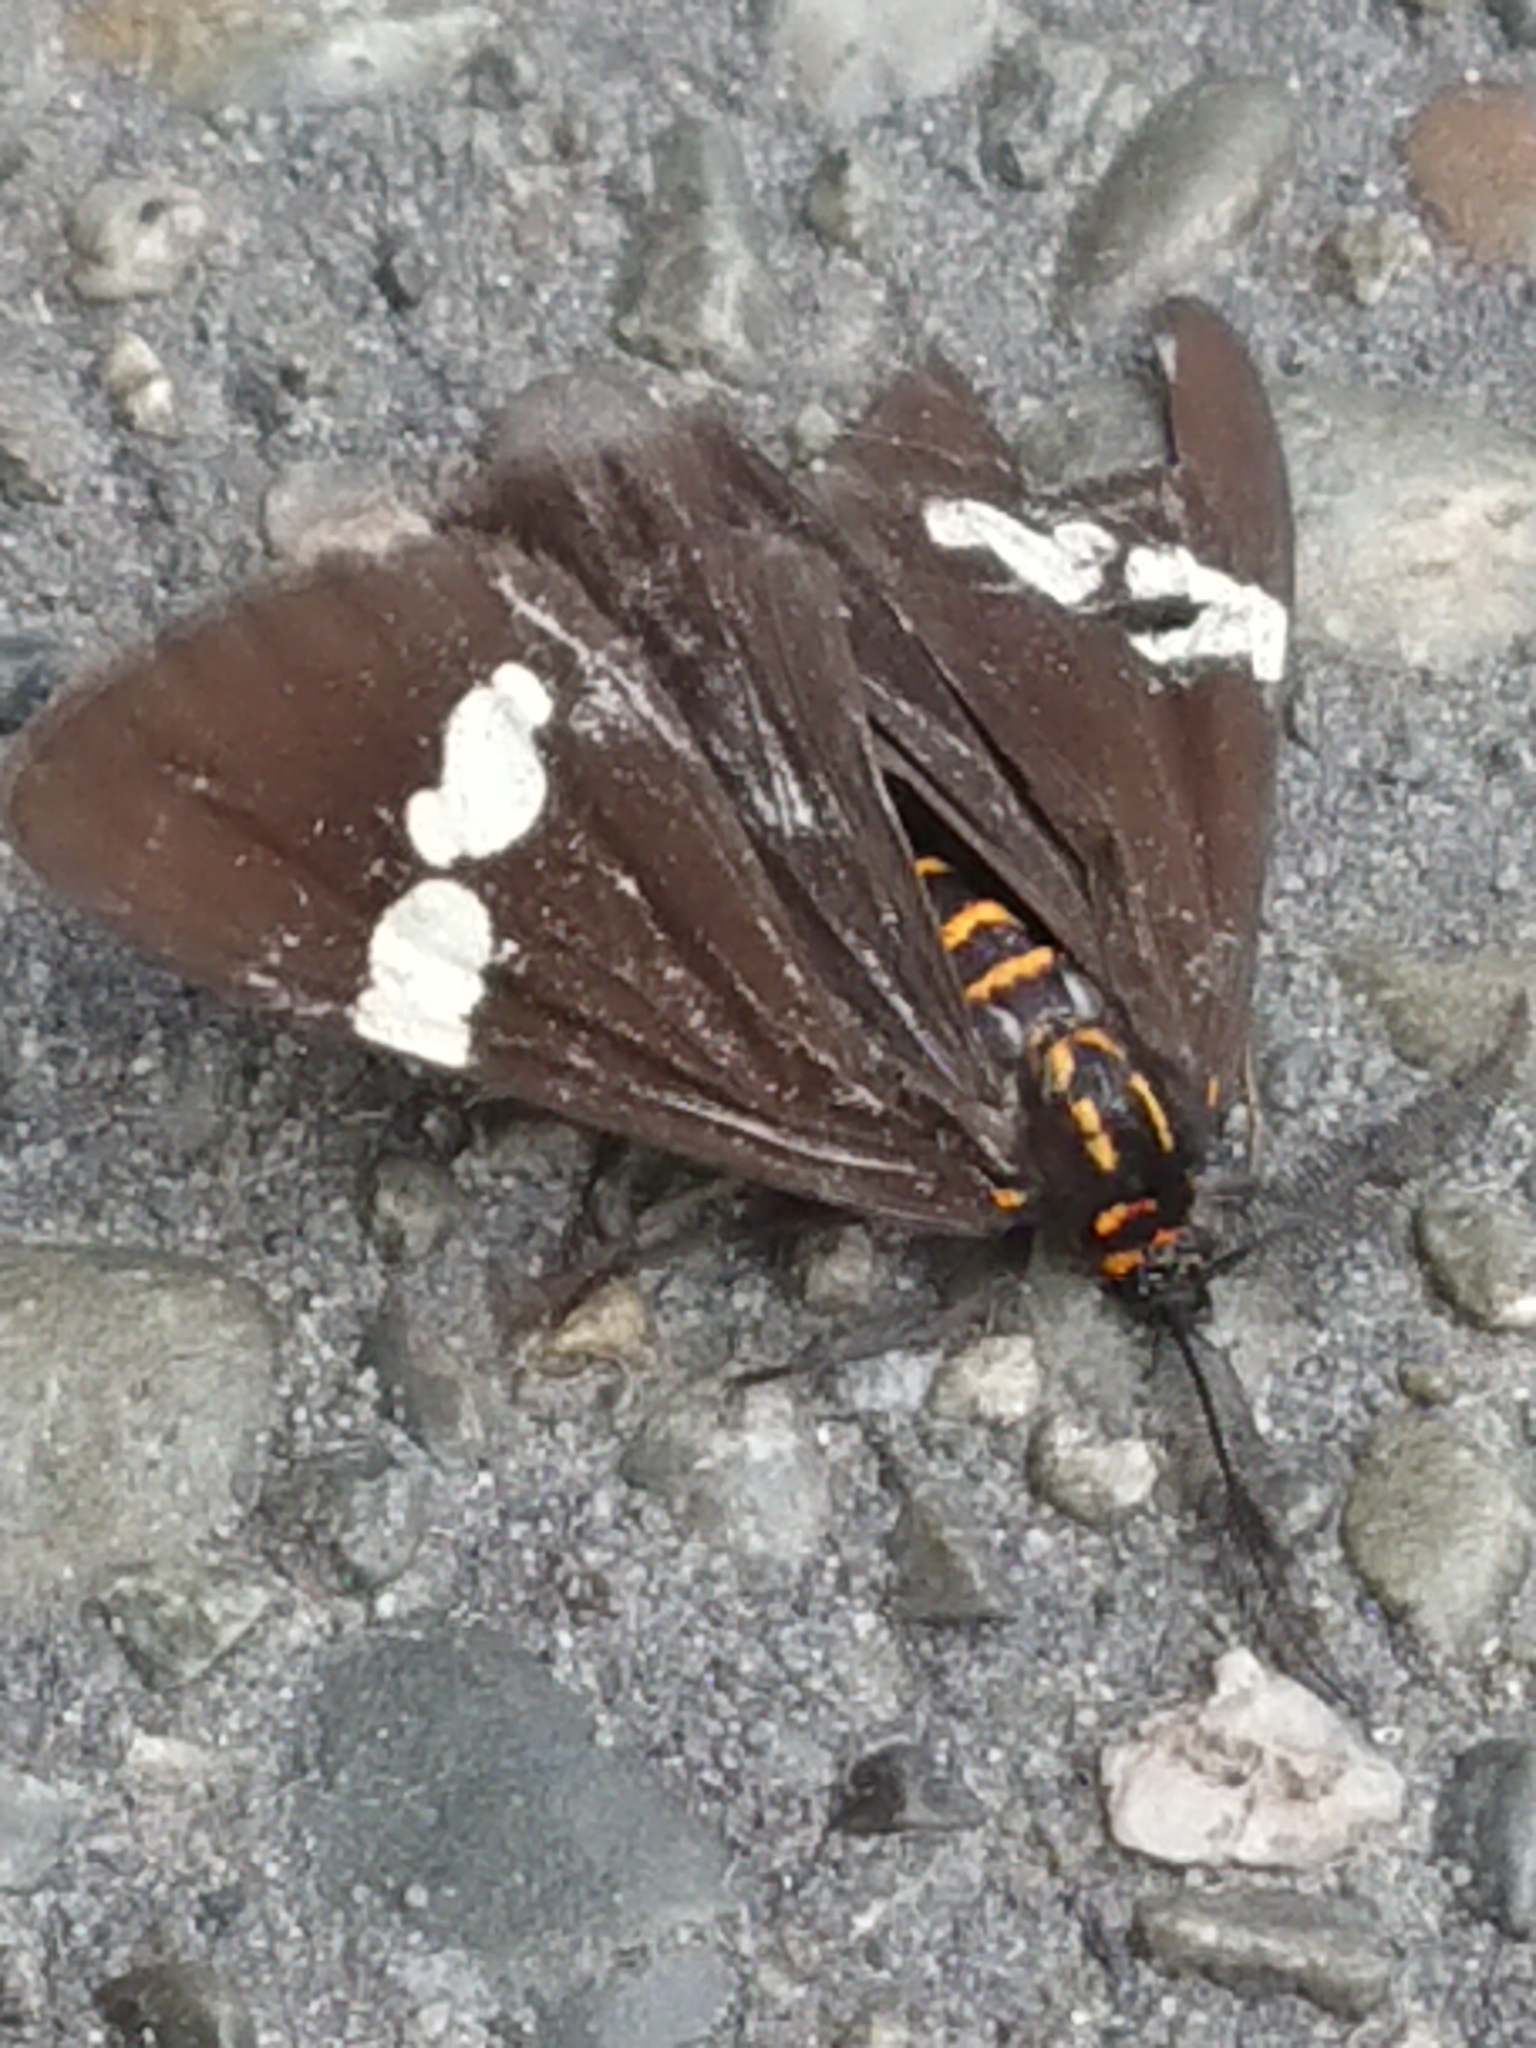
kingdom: Animalia
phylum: Arthropoda
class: Insecta
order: Lepidoptera
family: Erebidae
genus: Nyctemera
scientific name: Nyctemera annulatum
